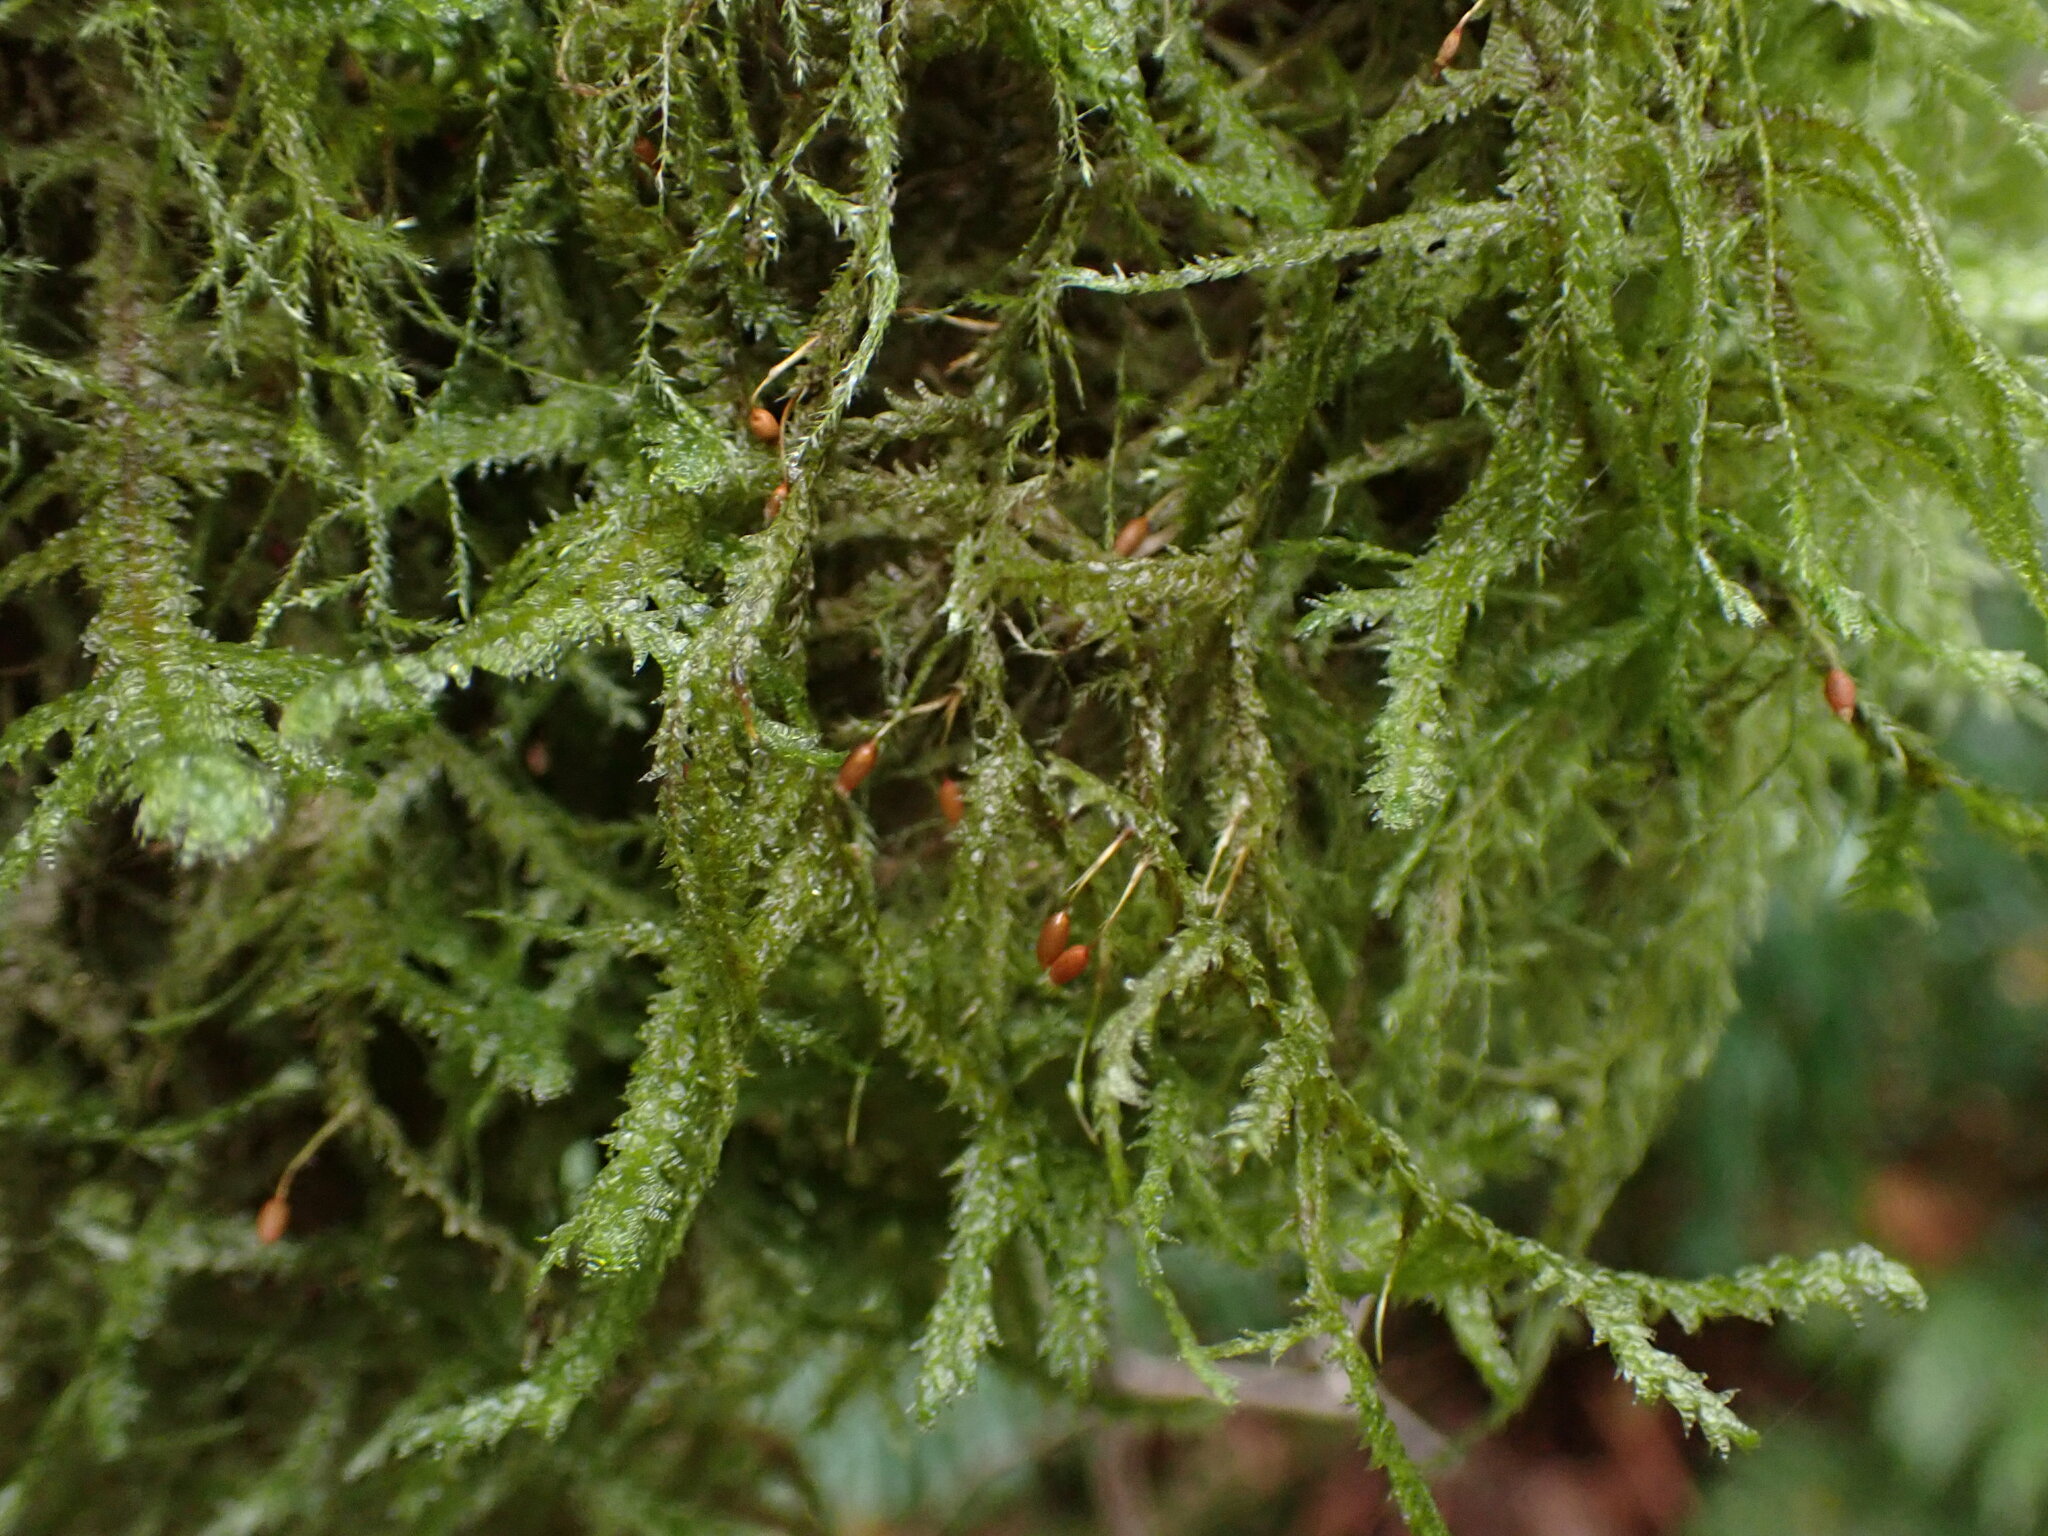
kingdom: Plantae
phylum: Bryophyta
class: Bryopsida
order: Hypnales
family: Neckeraceae
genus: Neckera
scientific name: Neckera douglasii
